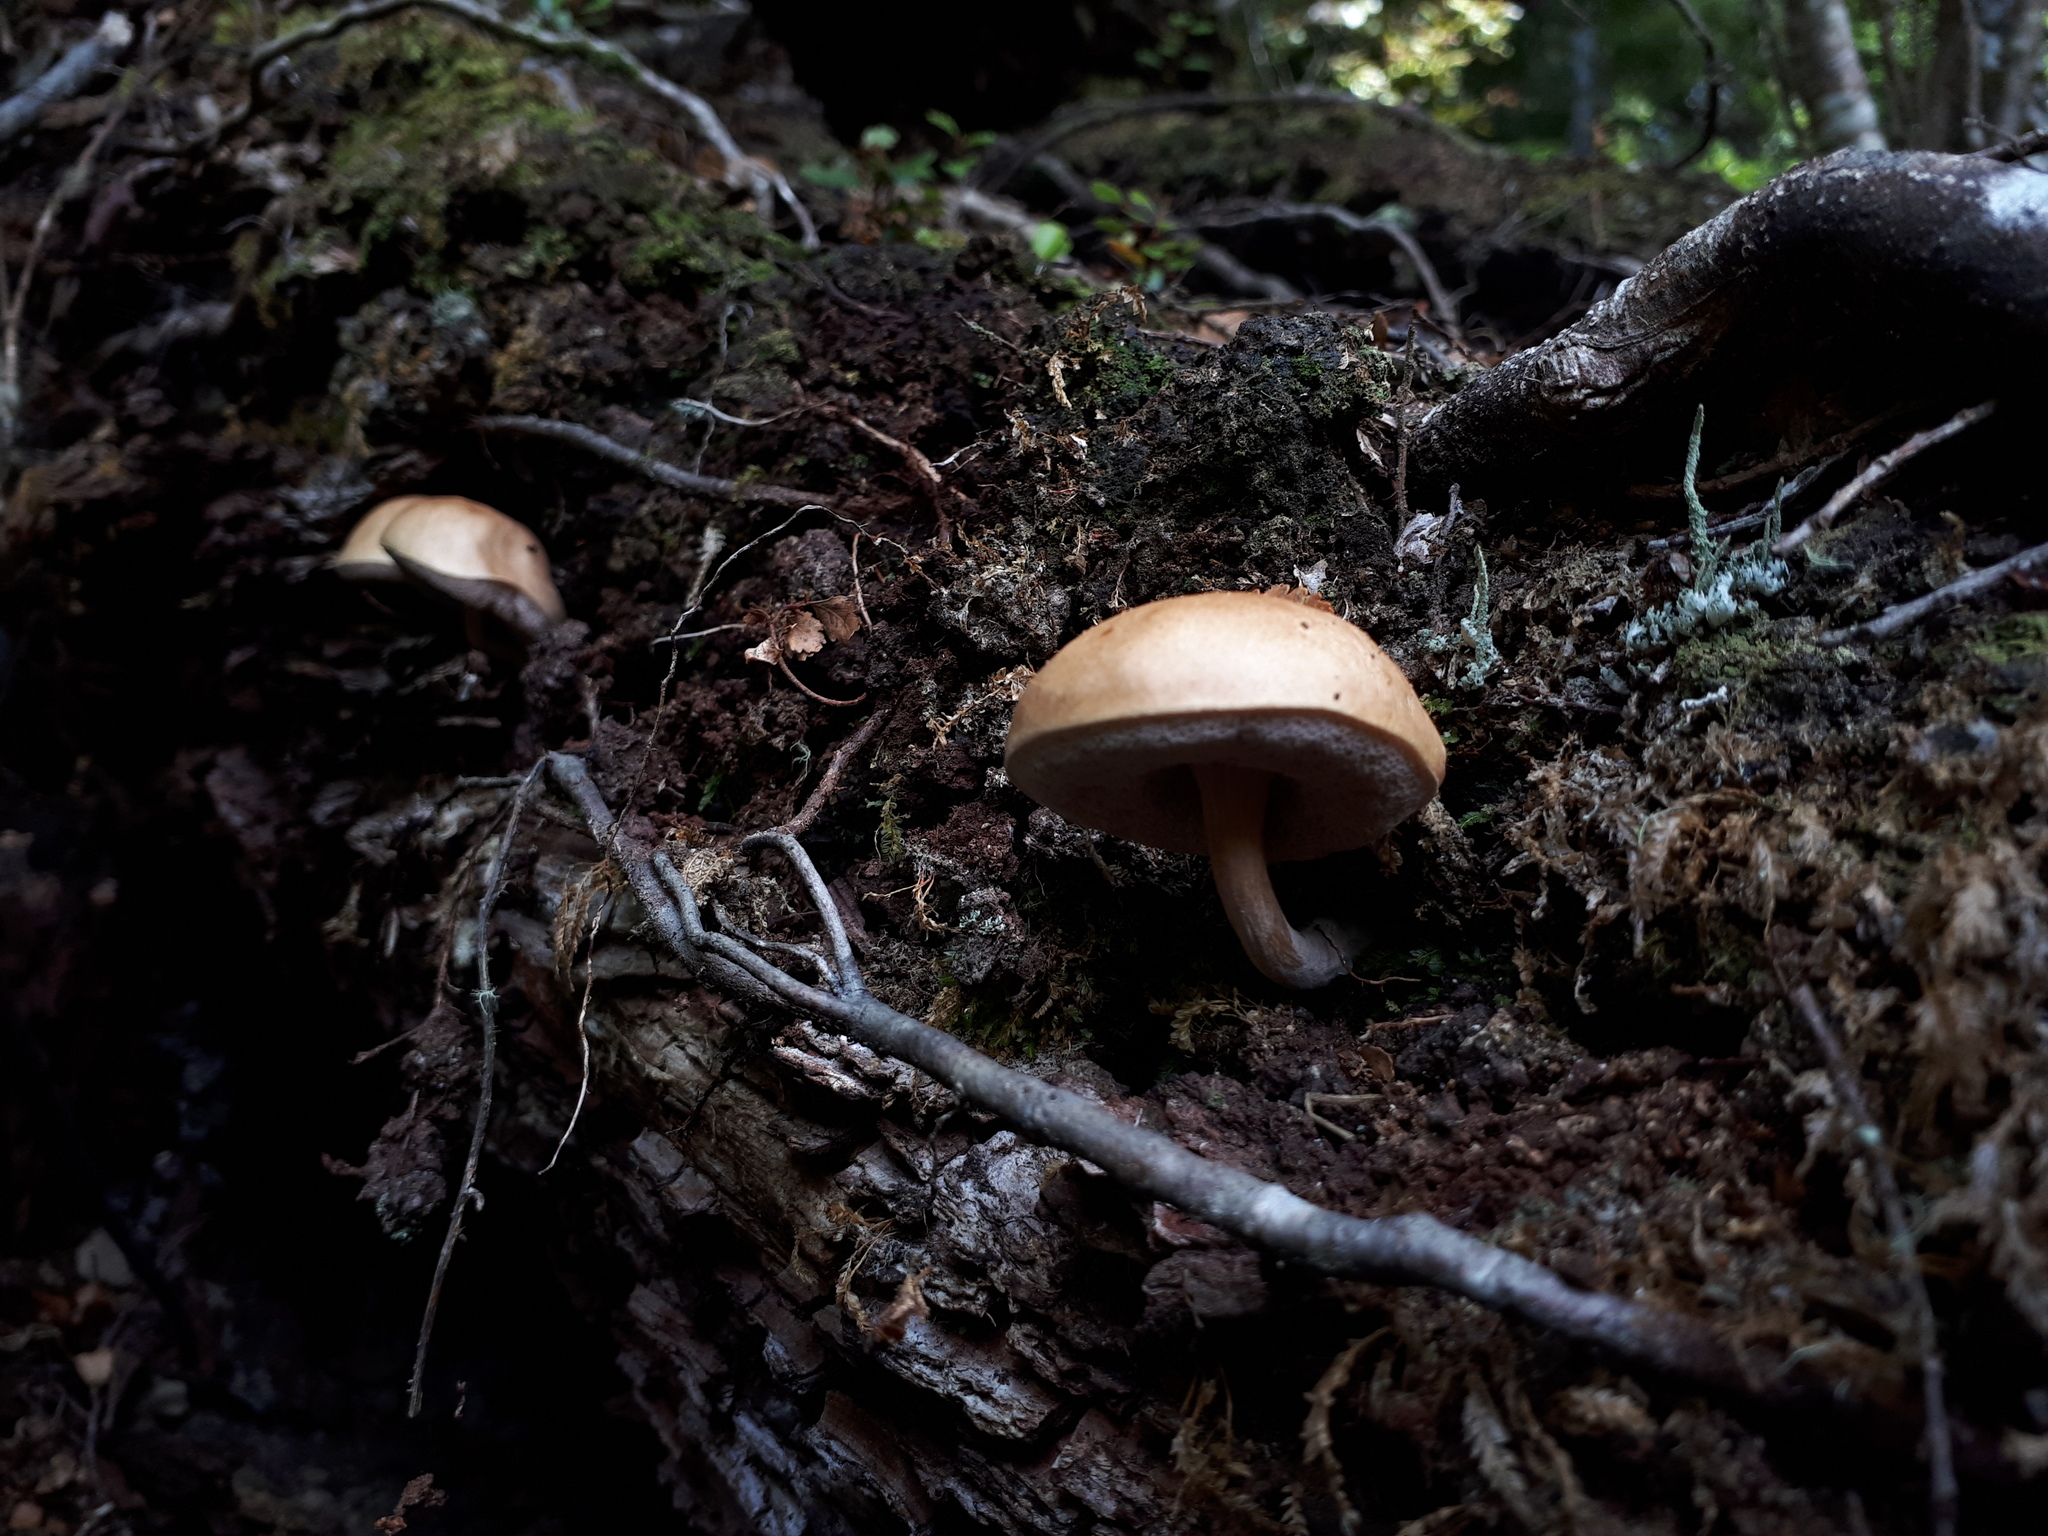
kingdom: Fungi
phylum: Basidiomycota
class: Agaricomycetes
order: Boletales
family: Boletaceae
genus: Fistulinella
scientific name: Fistulinella violaceipora
